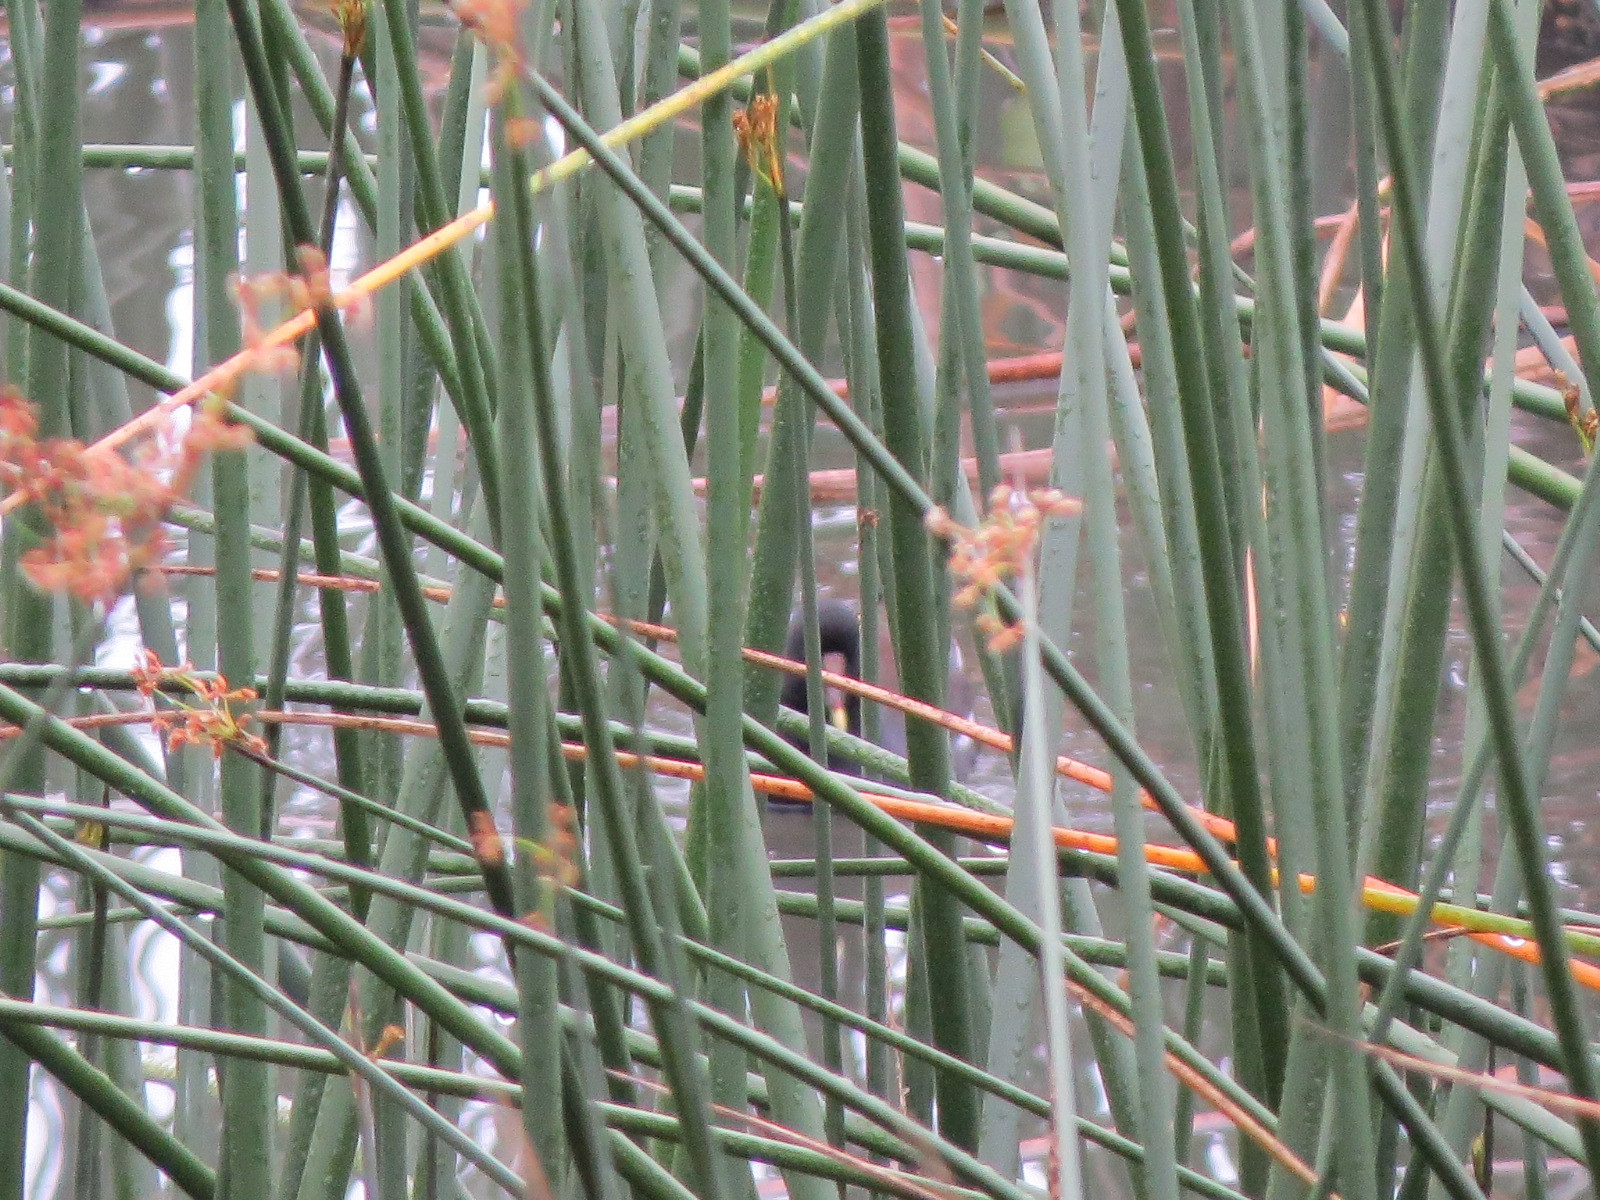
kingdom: Animalia
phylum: Chordata
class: Aves
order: Gruiformes
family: Rallidae
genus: Gallinula
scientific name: Gallinula chloropus
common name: Common moorhen
